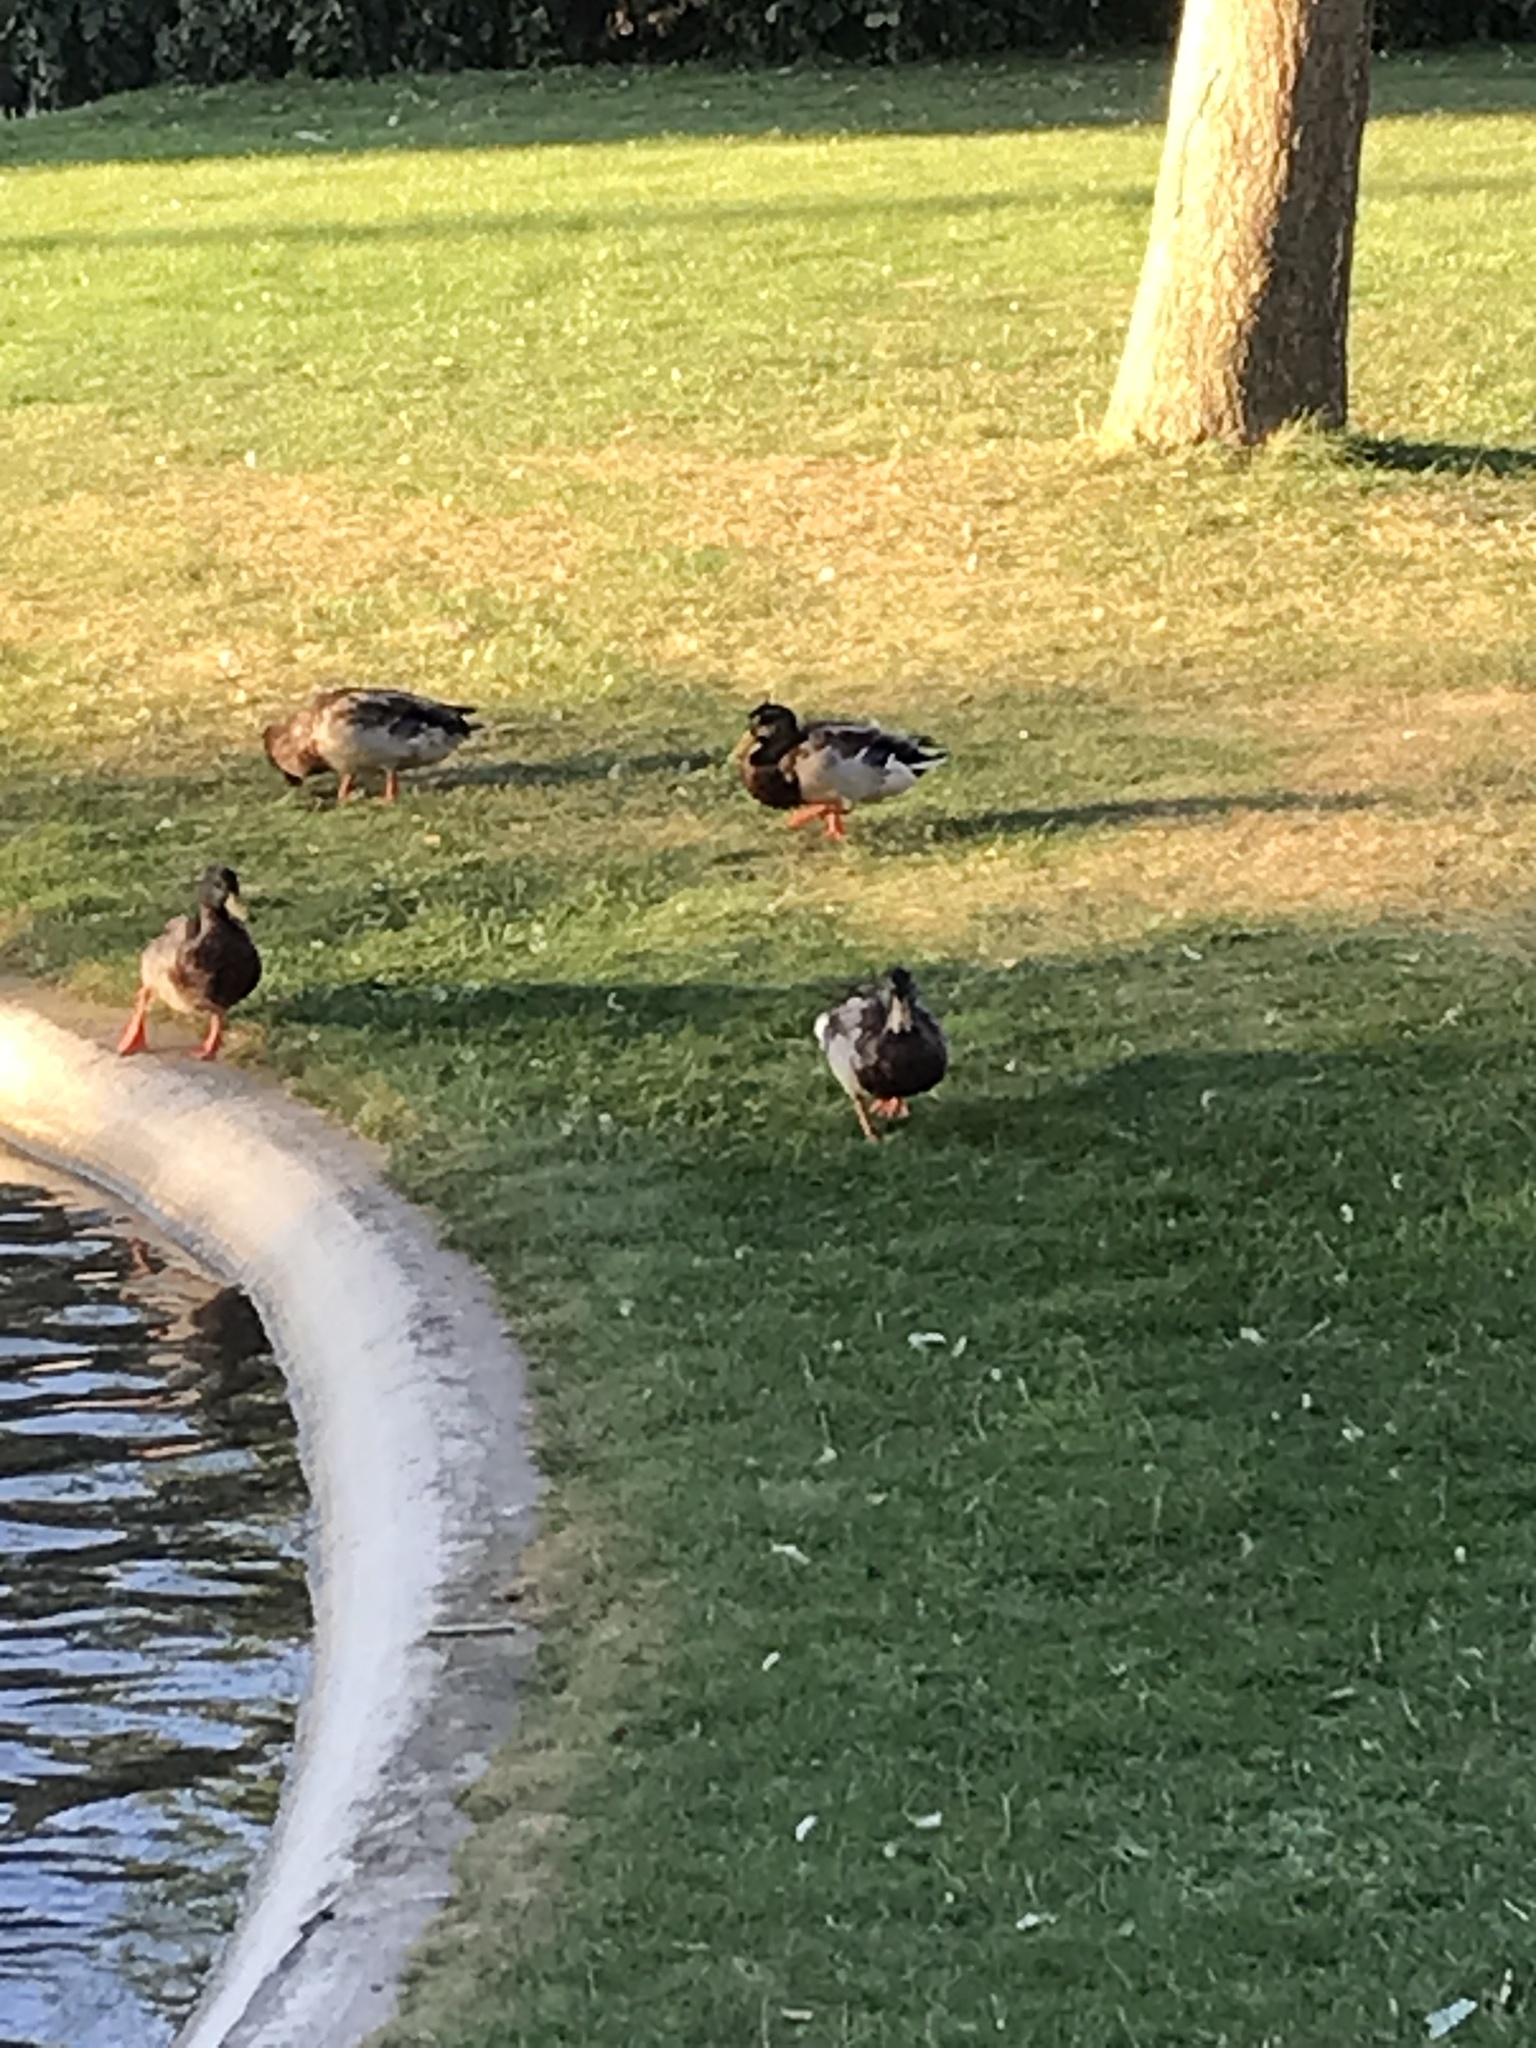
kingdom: Animalia
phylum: Chordata
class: Aves
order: Anseriformes
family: Anatidae
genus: Anas
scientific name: Anas platyrhynchos
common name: Mallard
